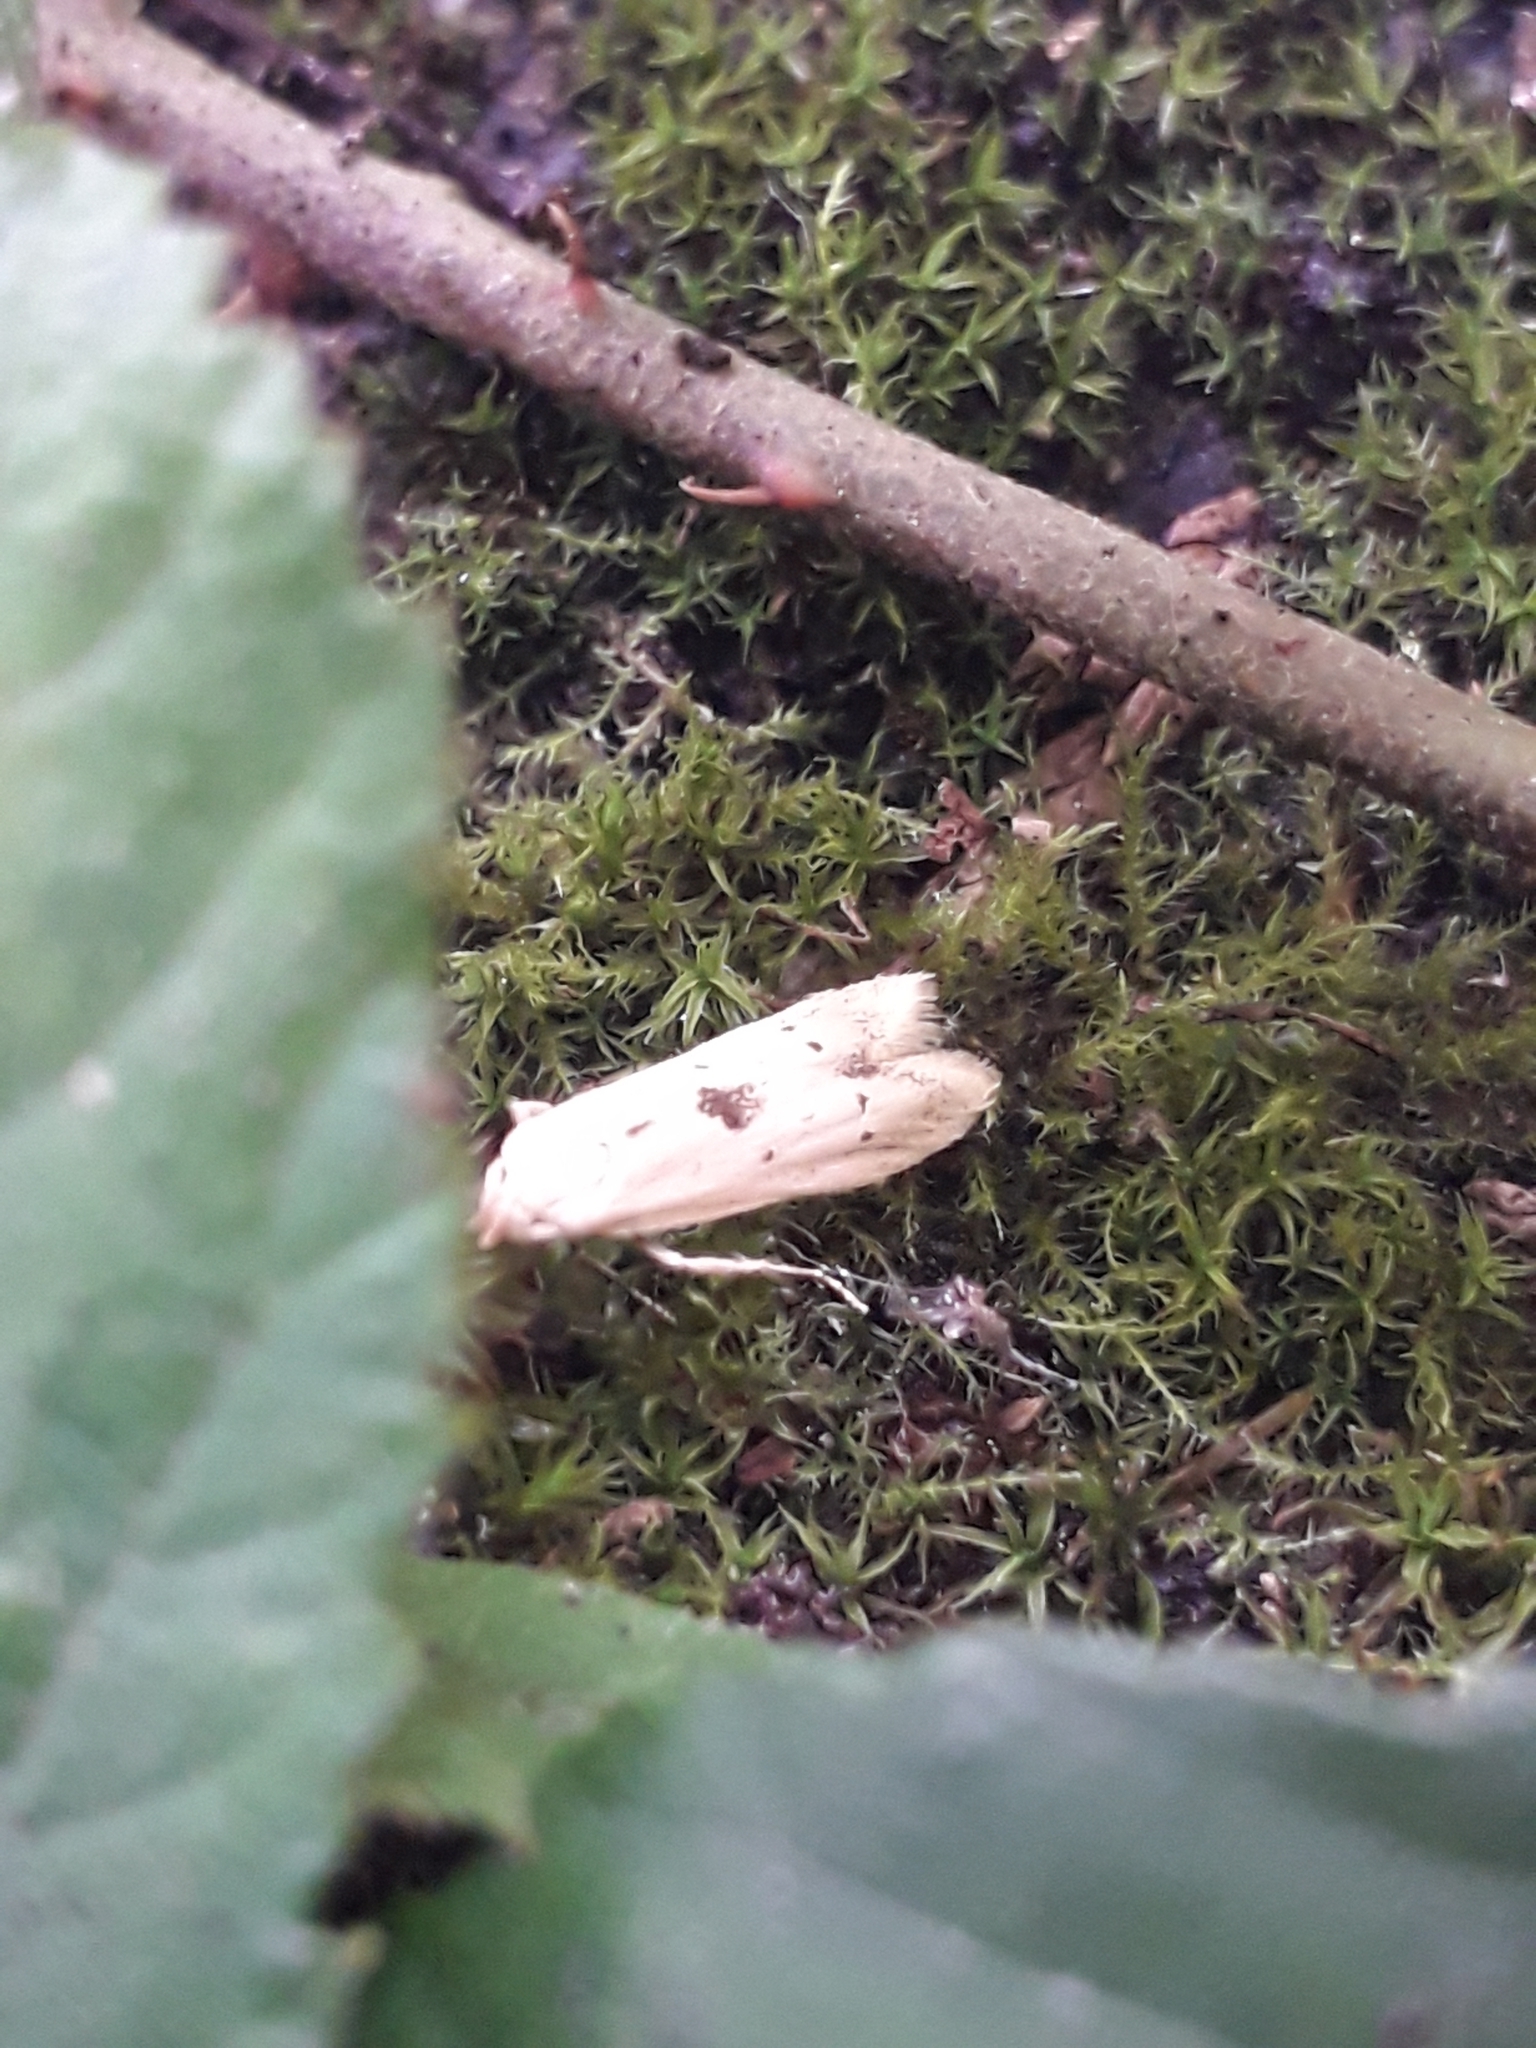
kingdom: Animalia
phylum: Arthropoda
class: Insecta
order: Lepidoptera
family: Blastobasidae
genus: Blastobasis
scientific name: Blastobasis lacticolella
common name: London dowd
